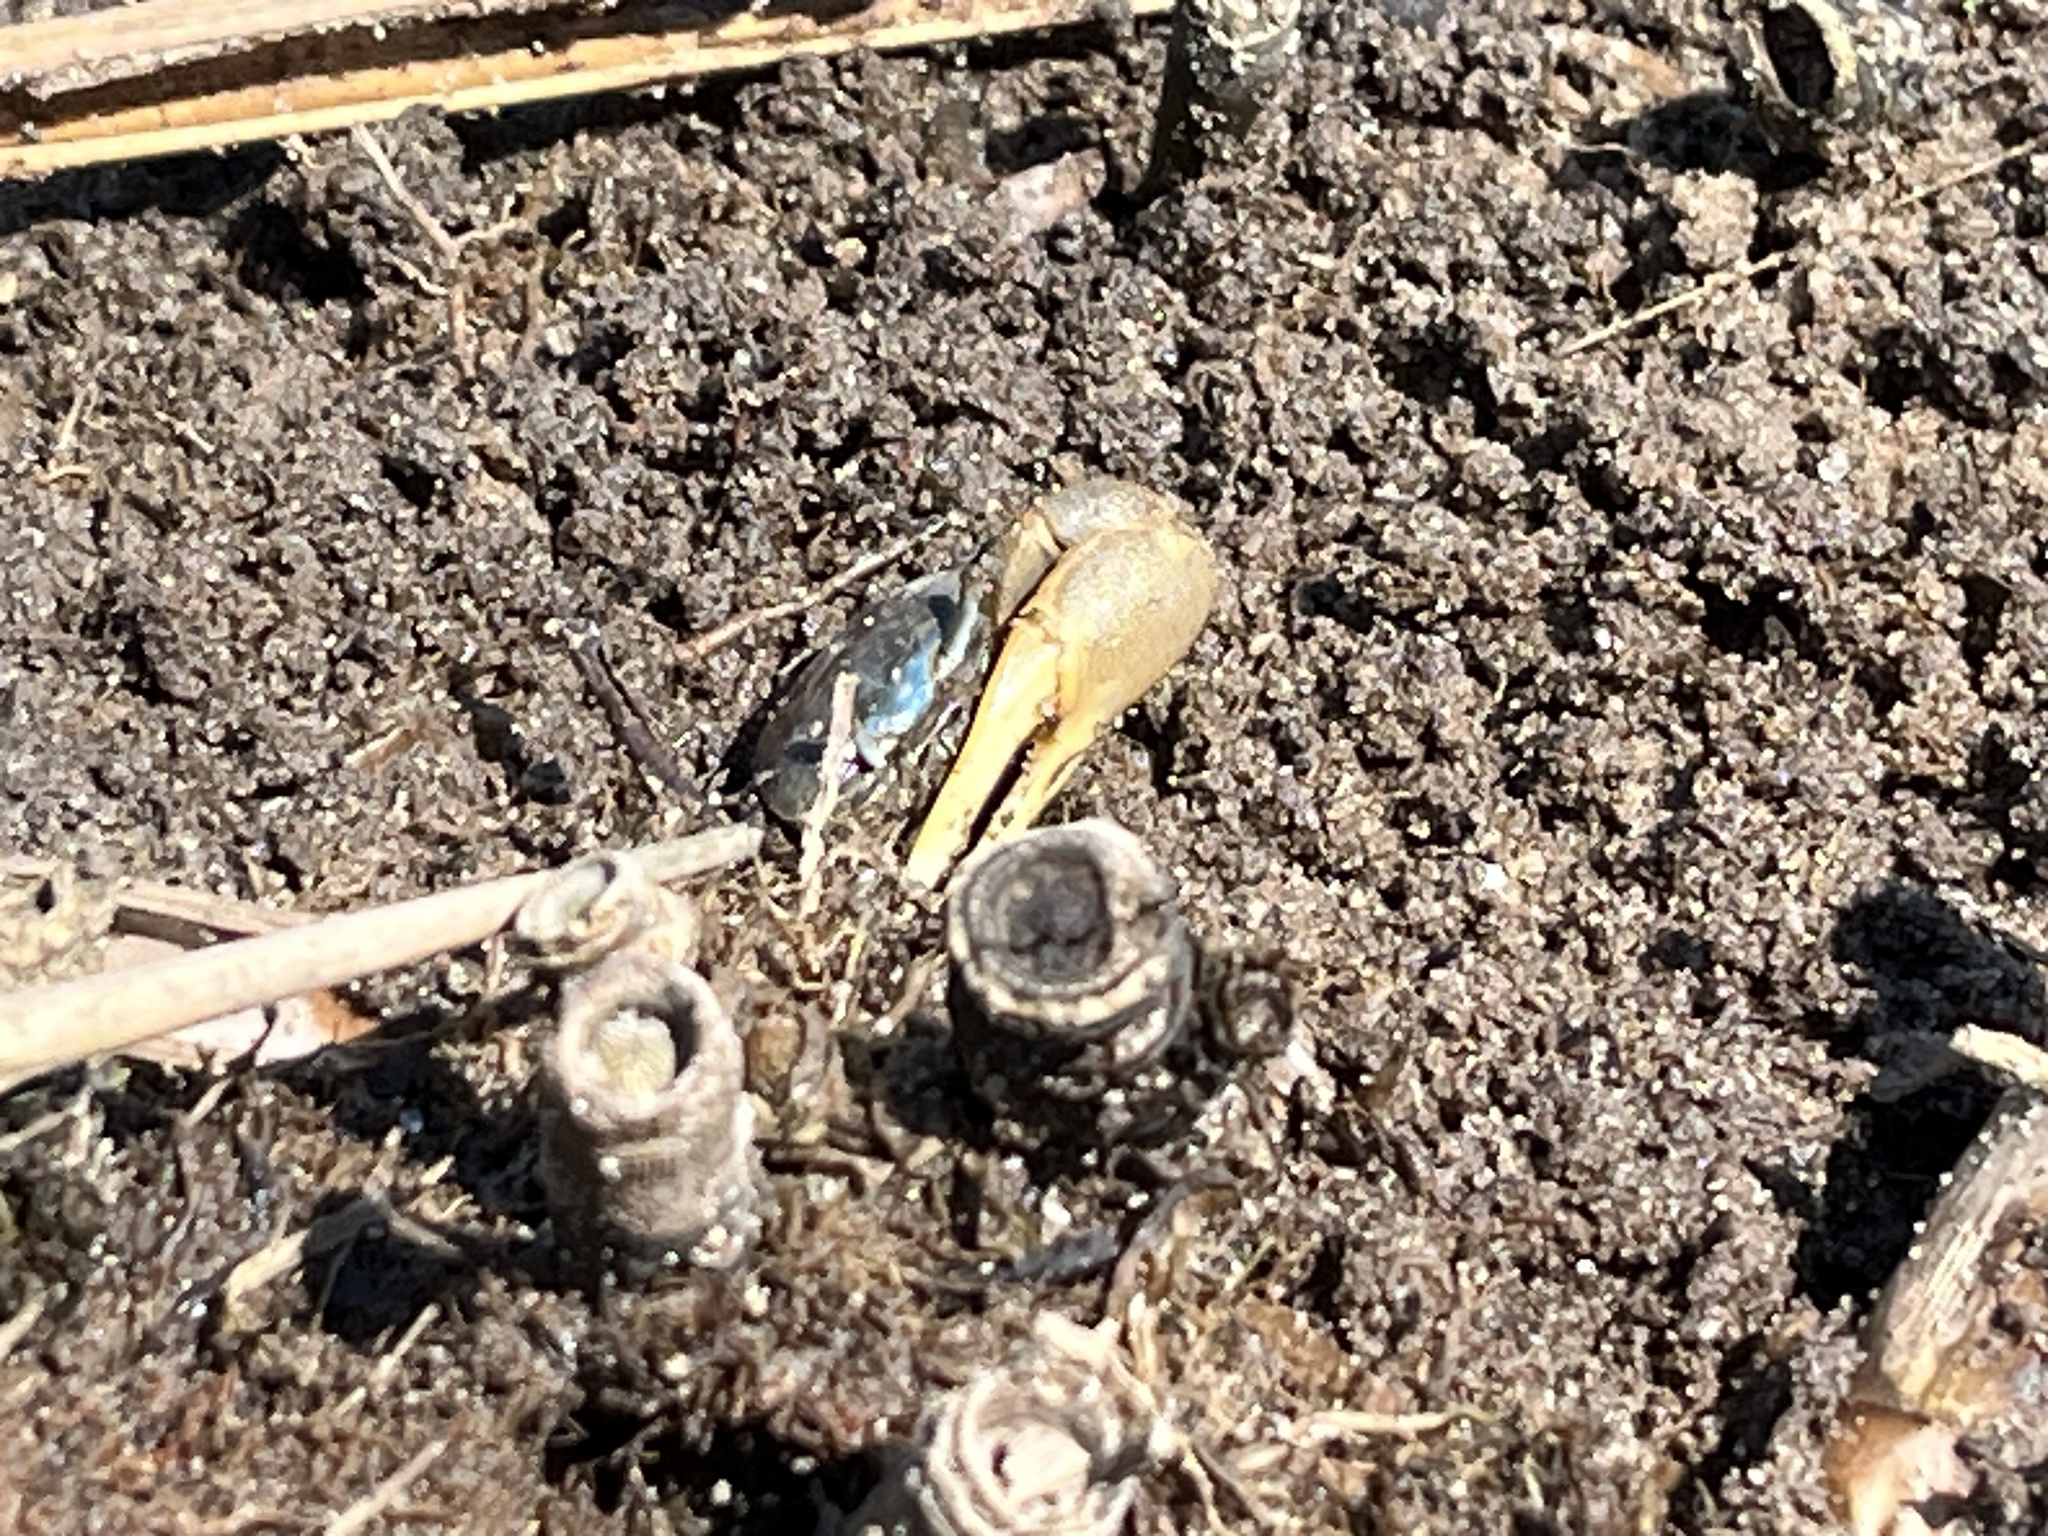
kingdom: Animalia
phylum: Arthropoda
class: Malacostraca
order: Decapoda
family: Ocypodidae
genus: Minuca
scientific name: Minuca pugnax
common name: Mud fiddler crab
